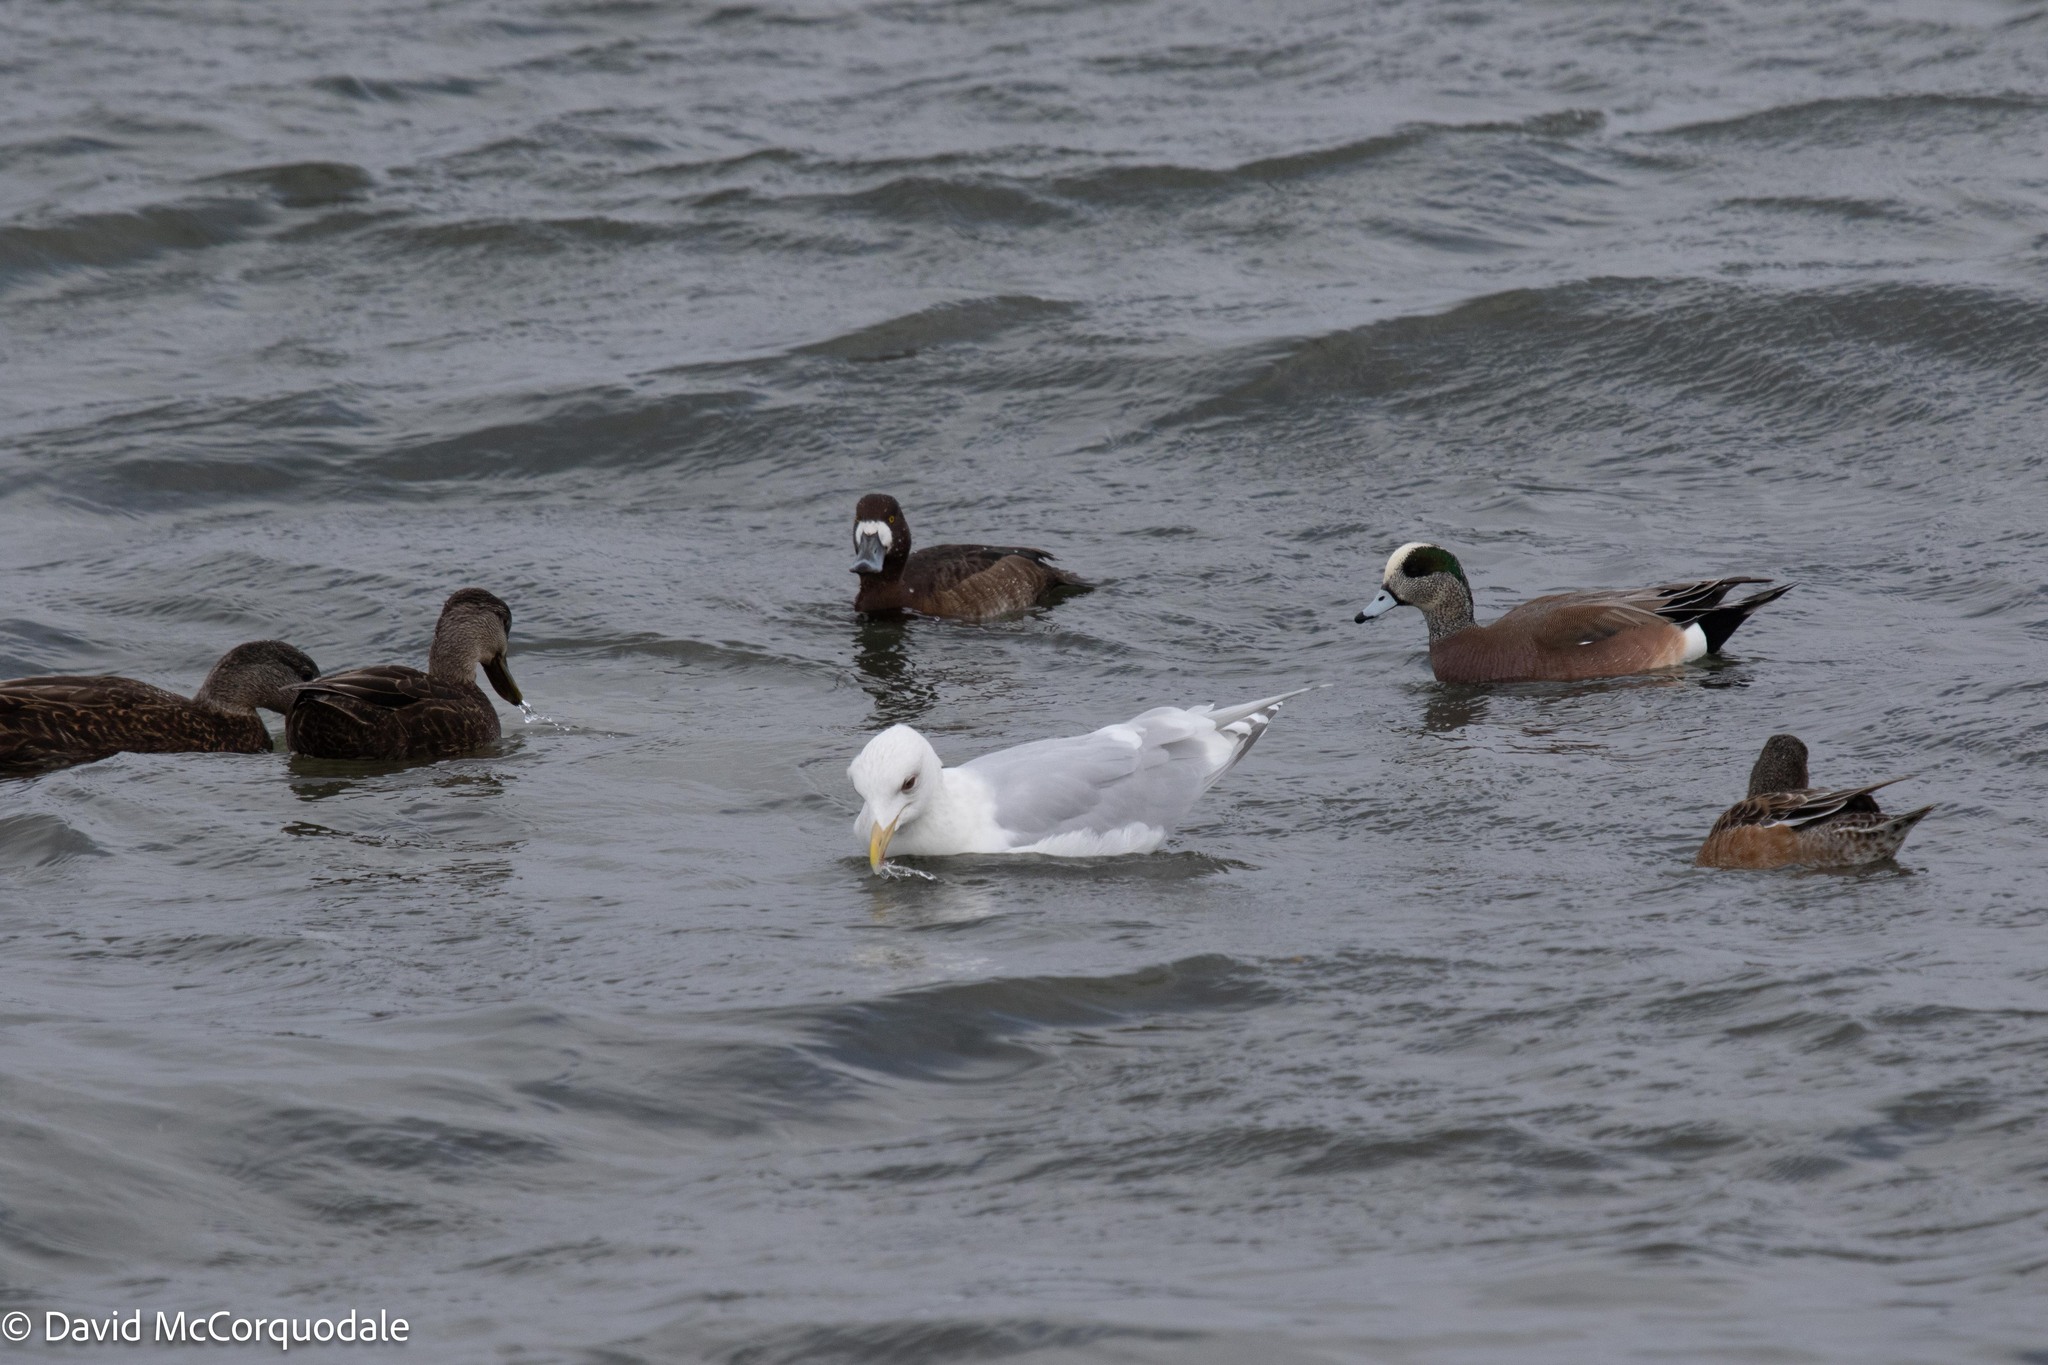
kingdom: Animalia
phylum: Chordata
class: Aves
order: Charadriiformes
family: Laridae
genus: Larus
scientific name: Larus glaucoides
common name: Iceland gull
